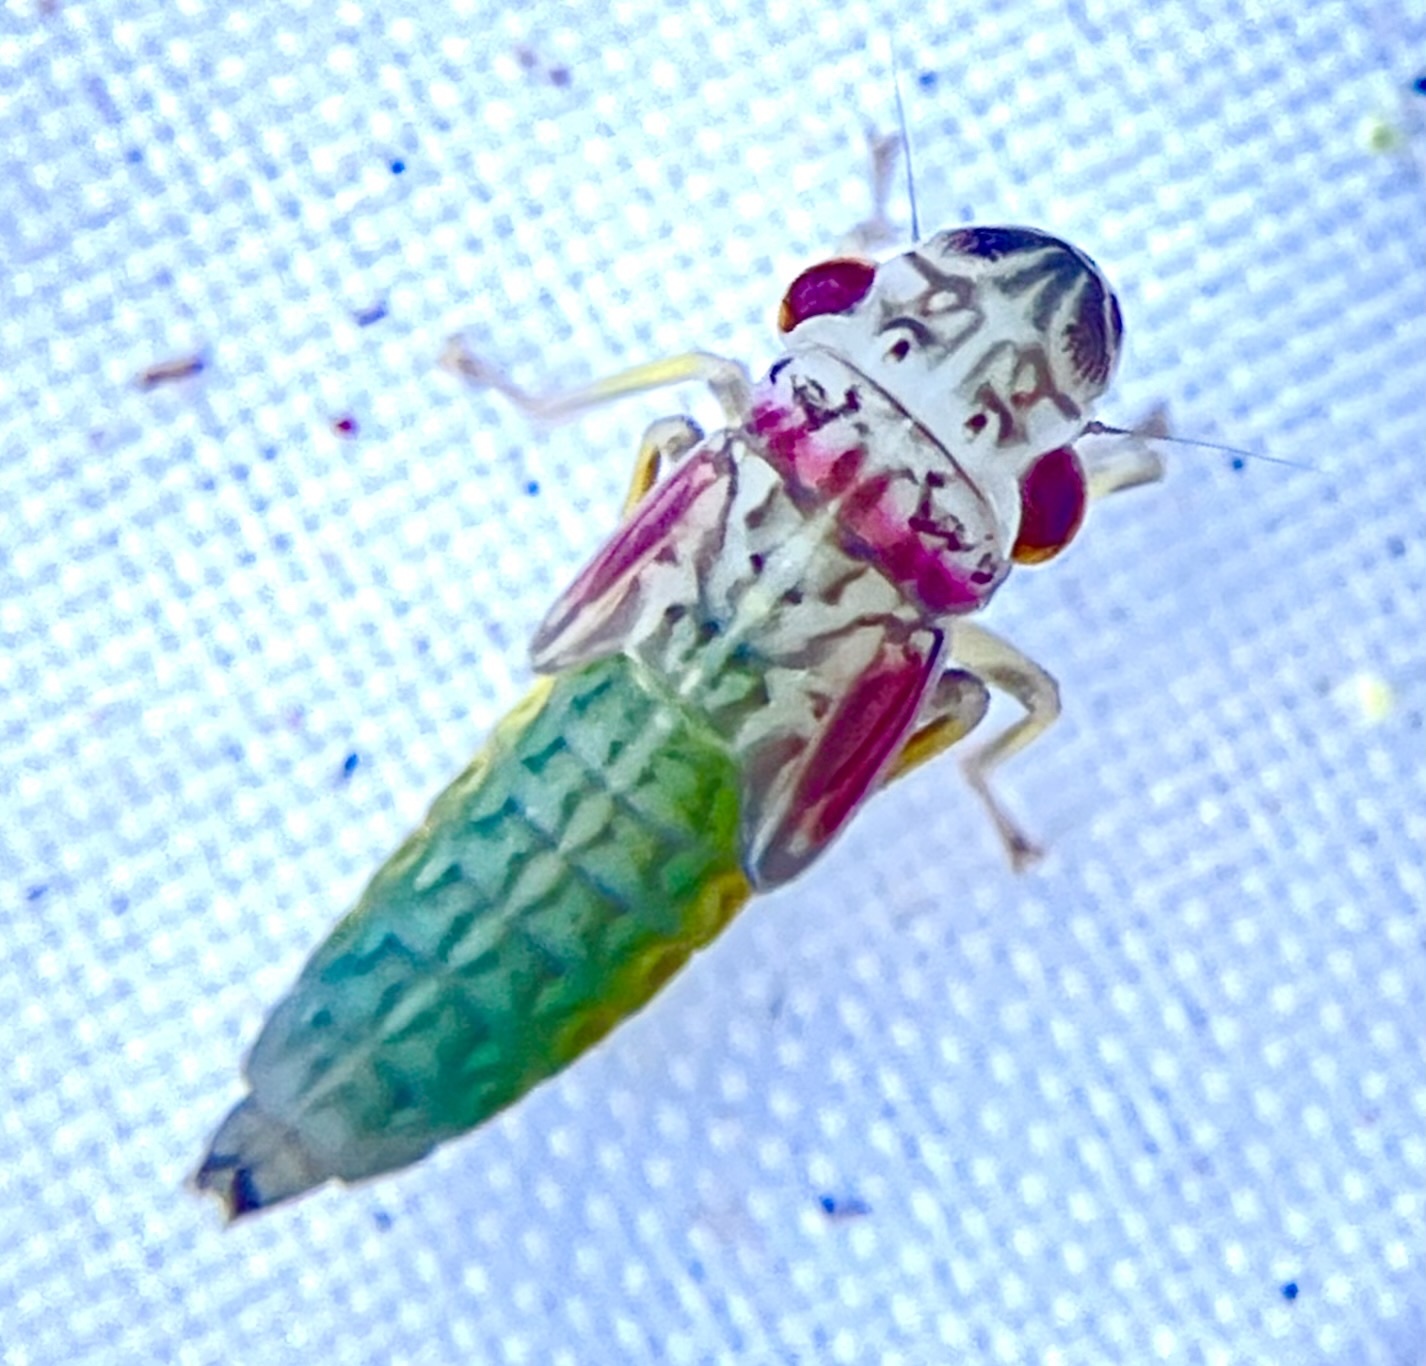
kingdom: Animalia
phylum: Arthropoda
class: Insecta
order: Hemiptera
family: Cicadellidae
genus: Oncometopia
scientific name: Oncometopia orbona
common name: Broad-headed sharpshooter
